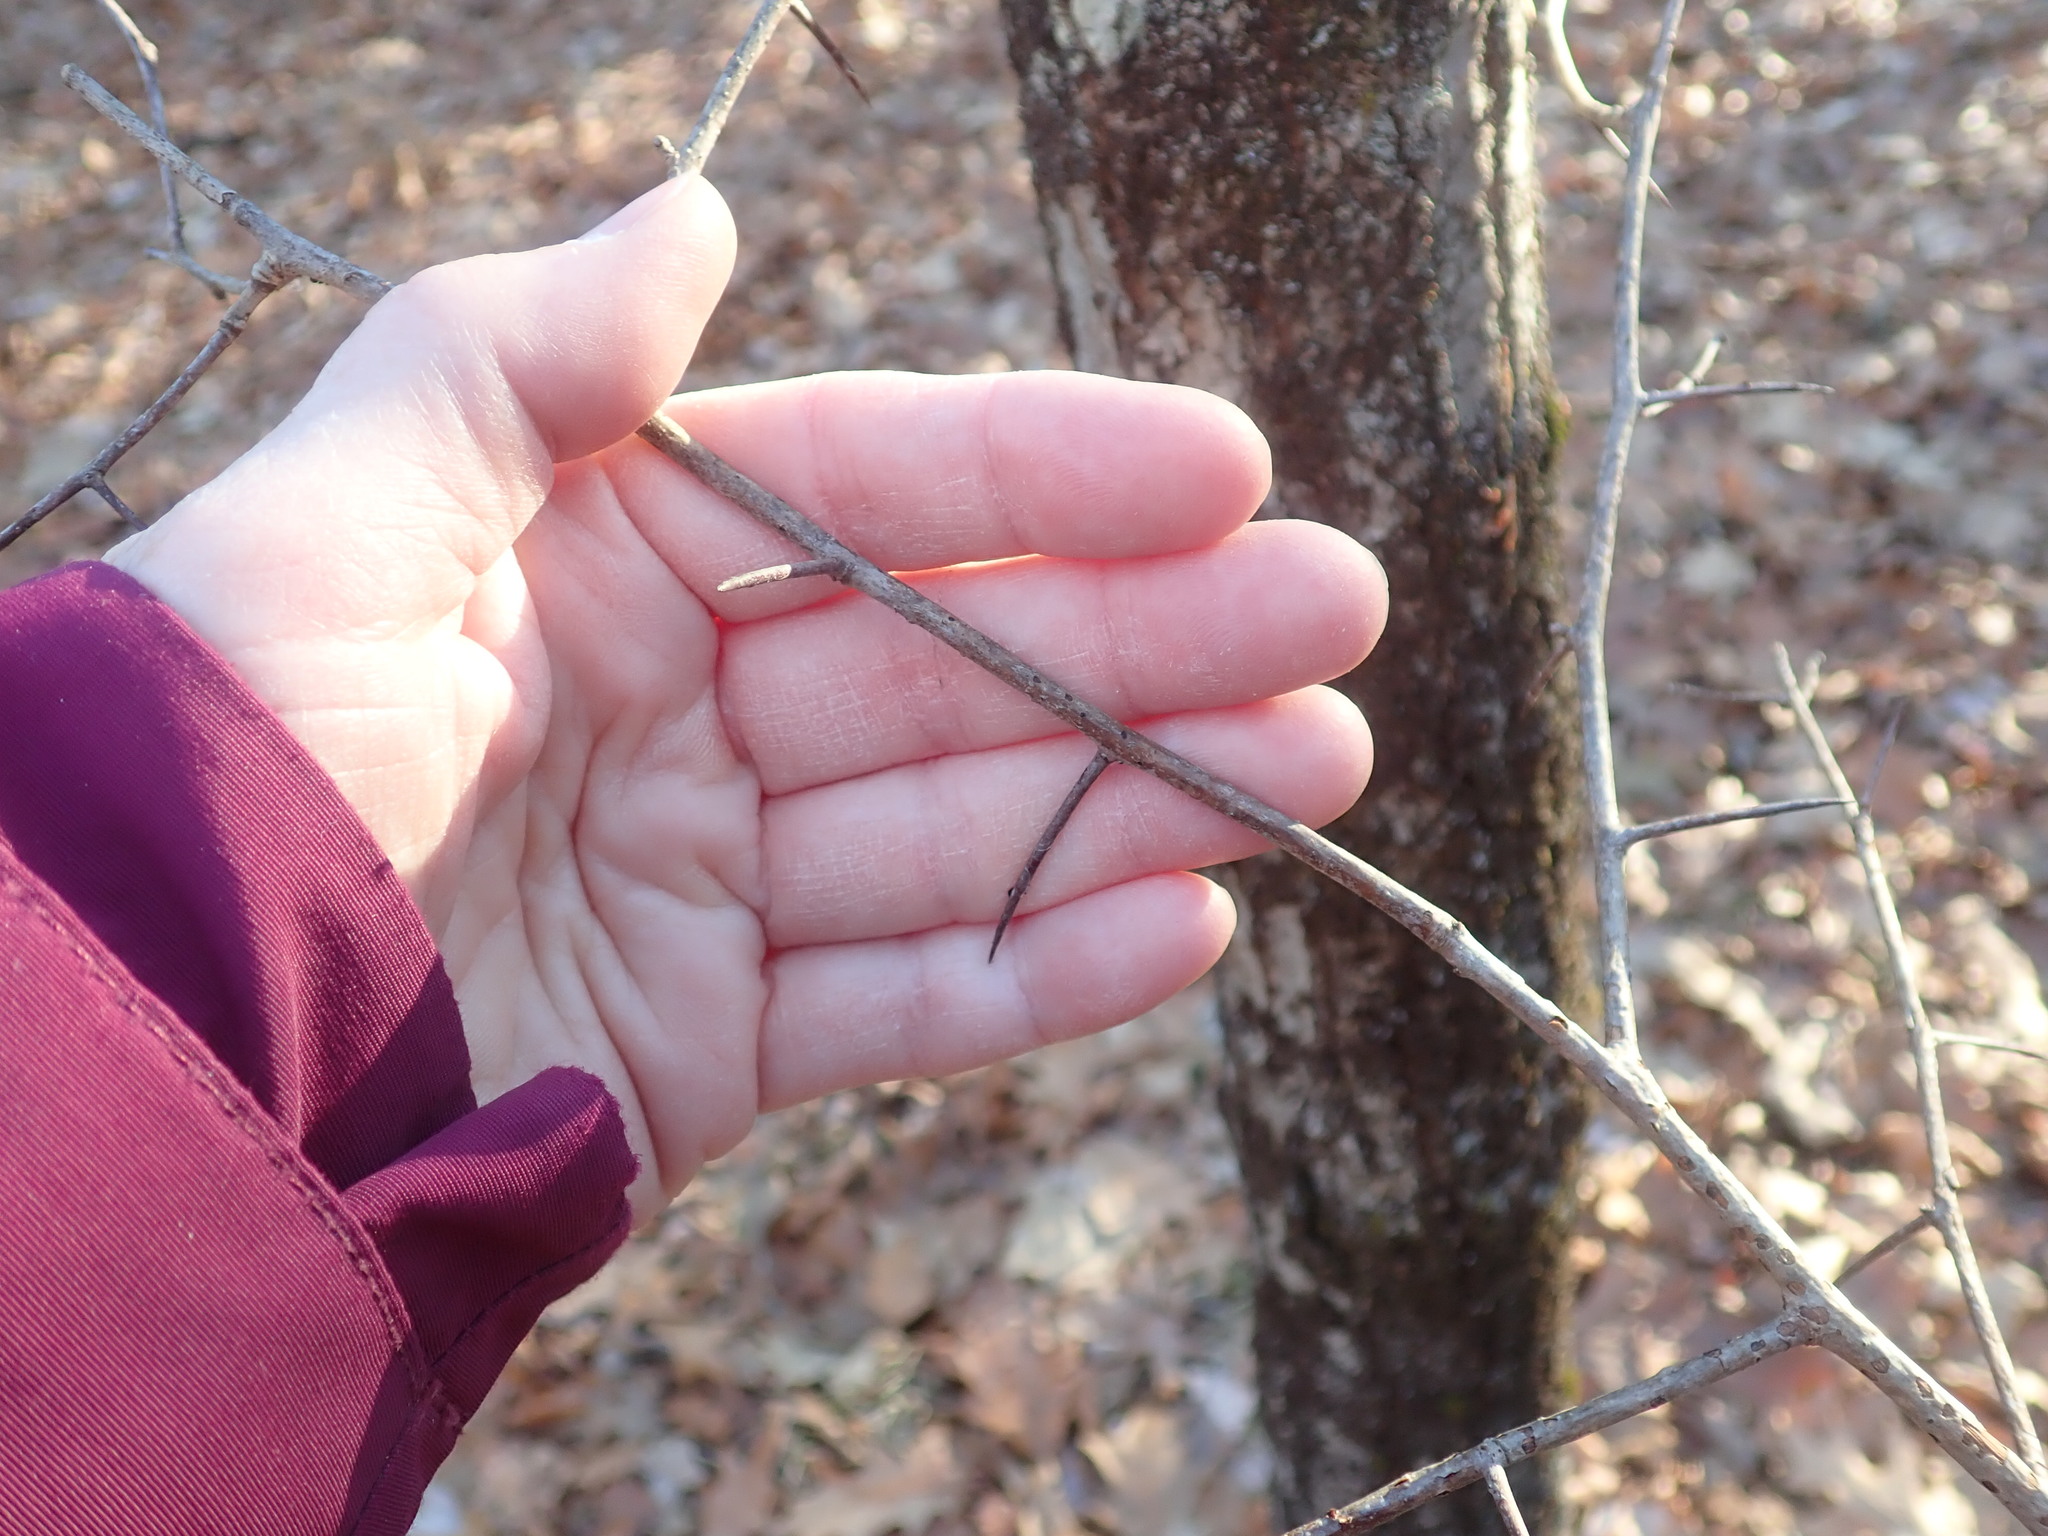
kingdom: Plantae
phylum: Tracheophyta
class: Magnoliopsida
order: Rosales
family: Rosaceae
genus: Crataegus
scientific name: Crataegus
